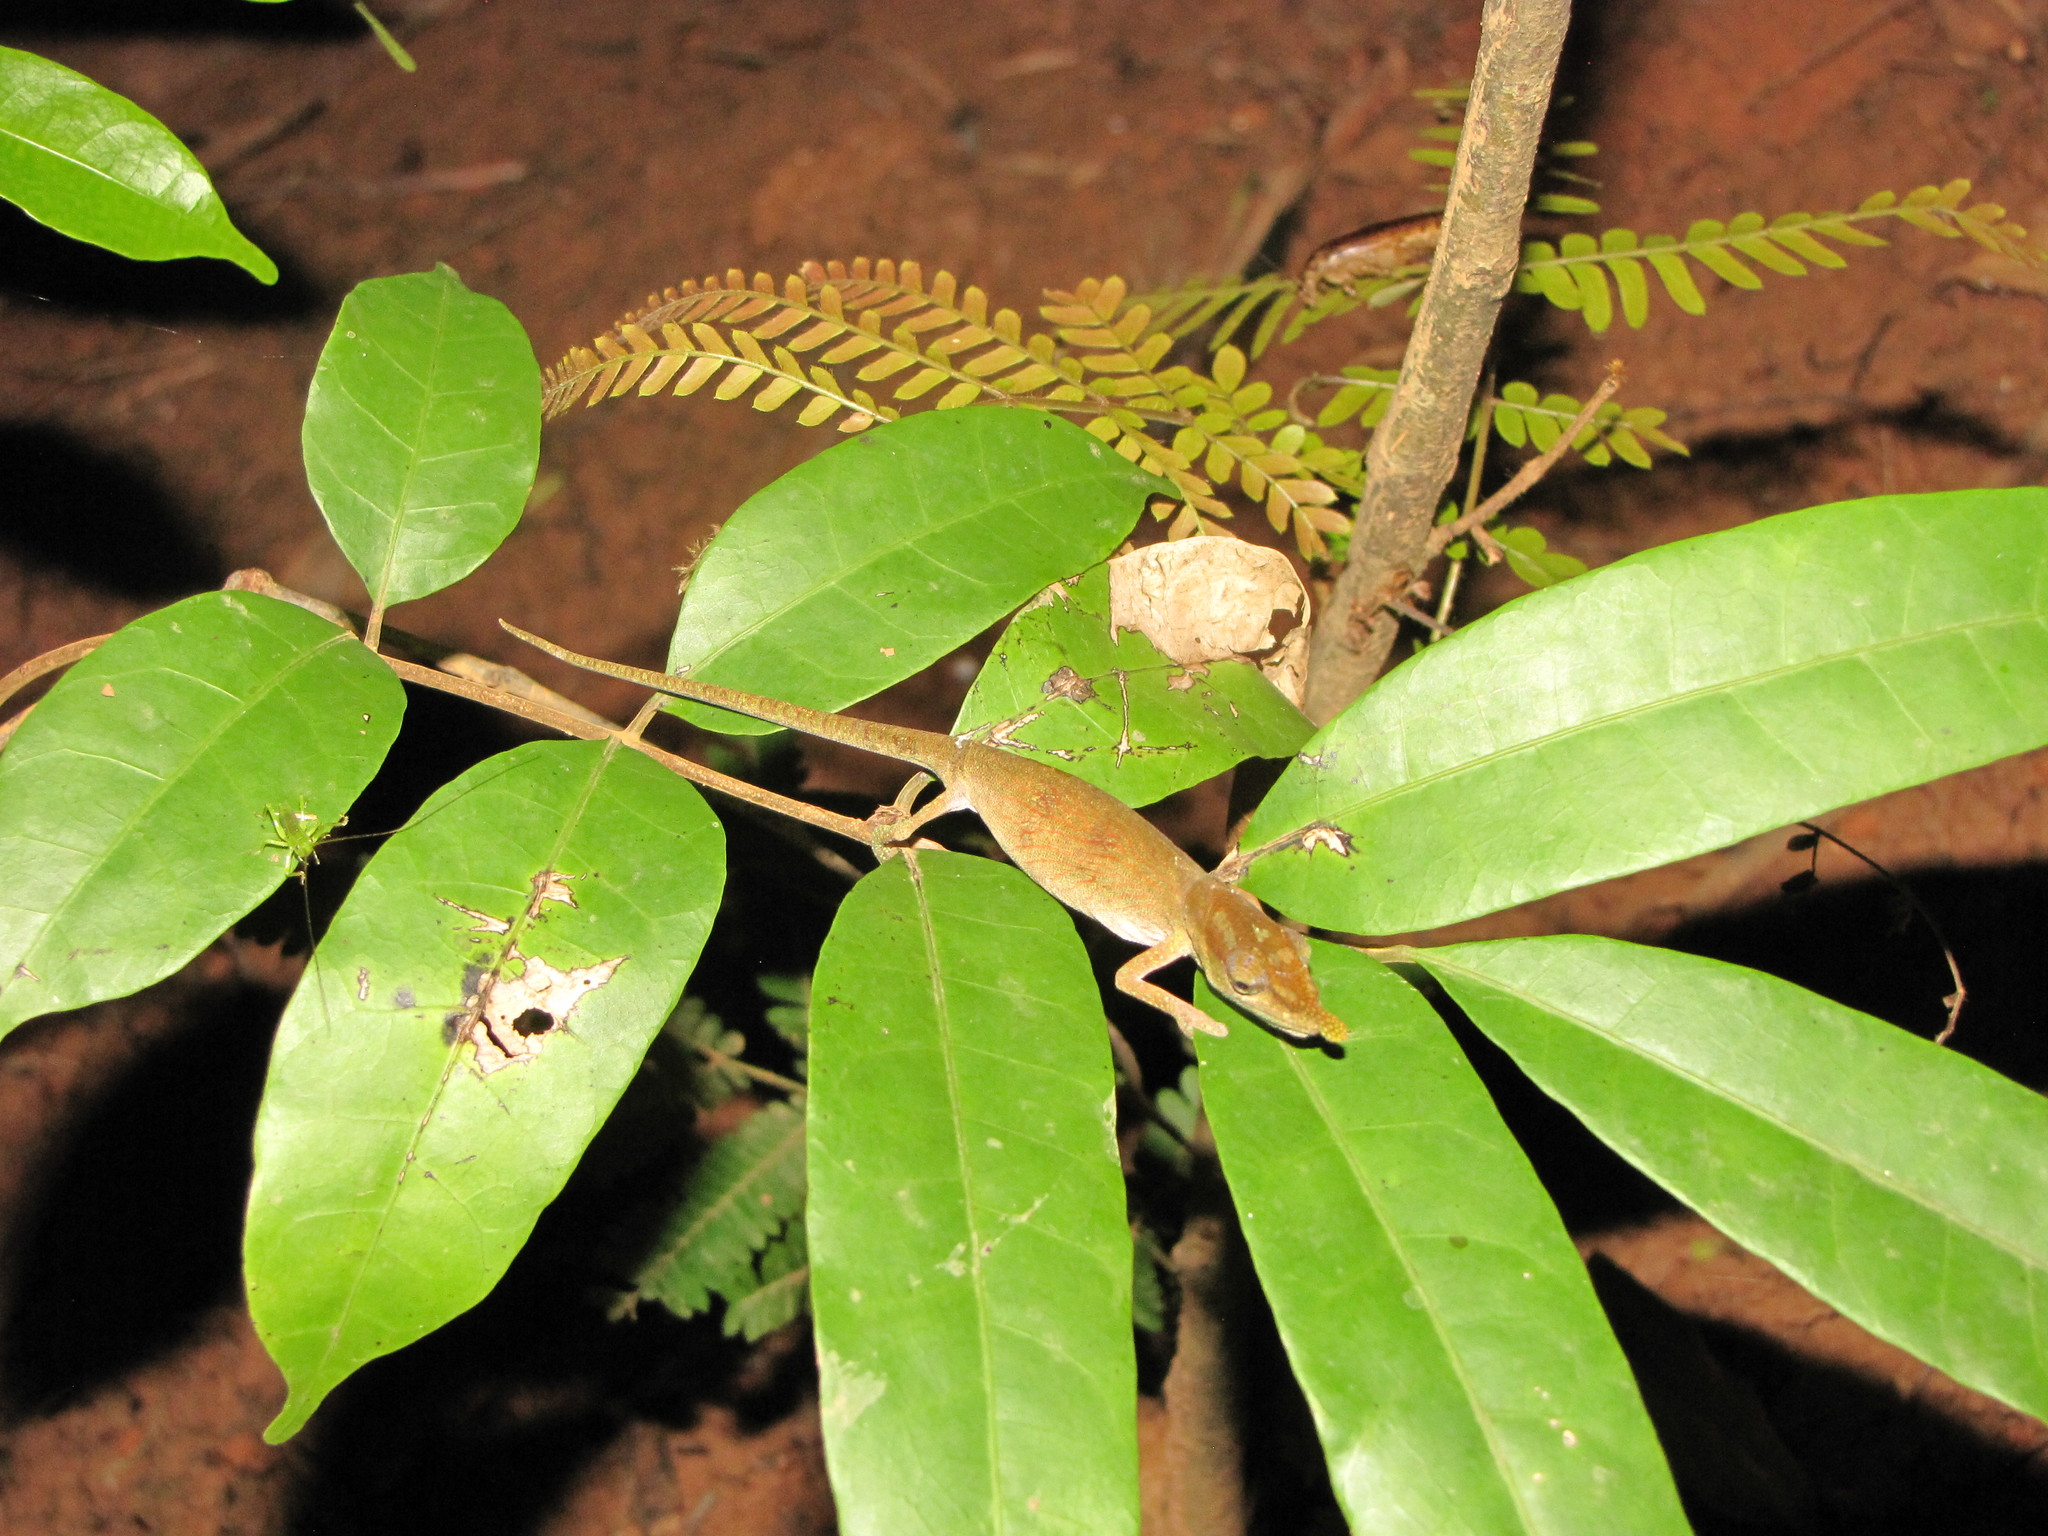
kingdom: Animalia
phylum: Chordata
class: Squamata
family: Chamaeleonidae
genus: Calumma
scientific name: Calumma boettgeri
